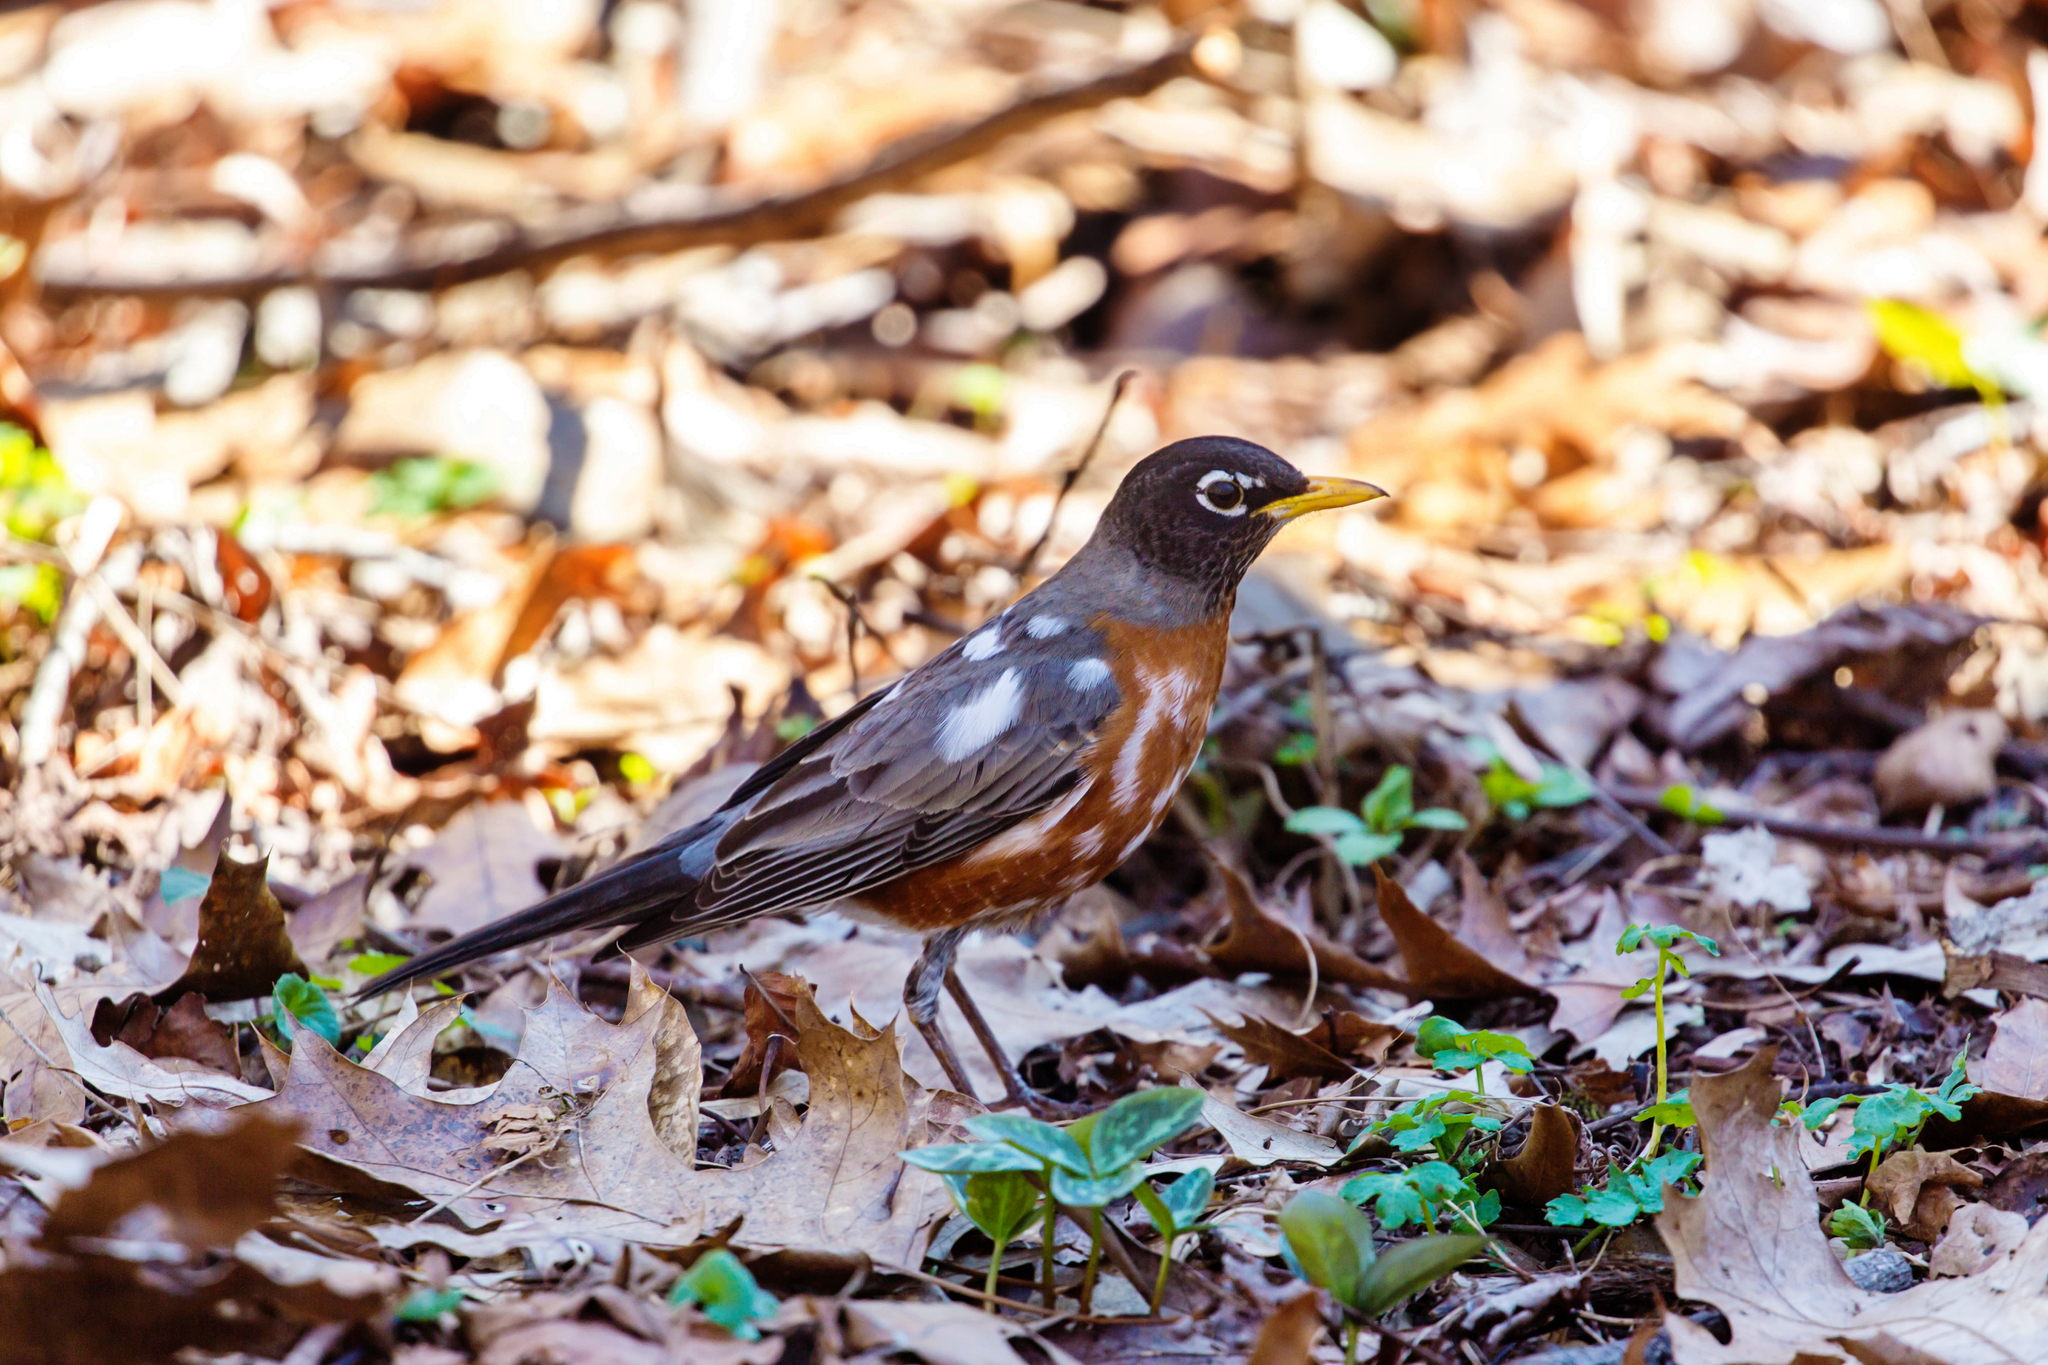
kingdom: Animalia
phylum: Chordata
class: Aves
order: Passeriformes
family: Turdidae
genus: Turdus
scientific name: Turdus migratorius
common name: American robin
